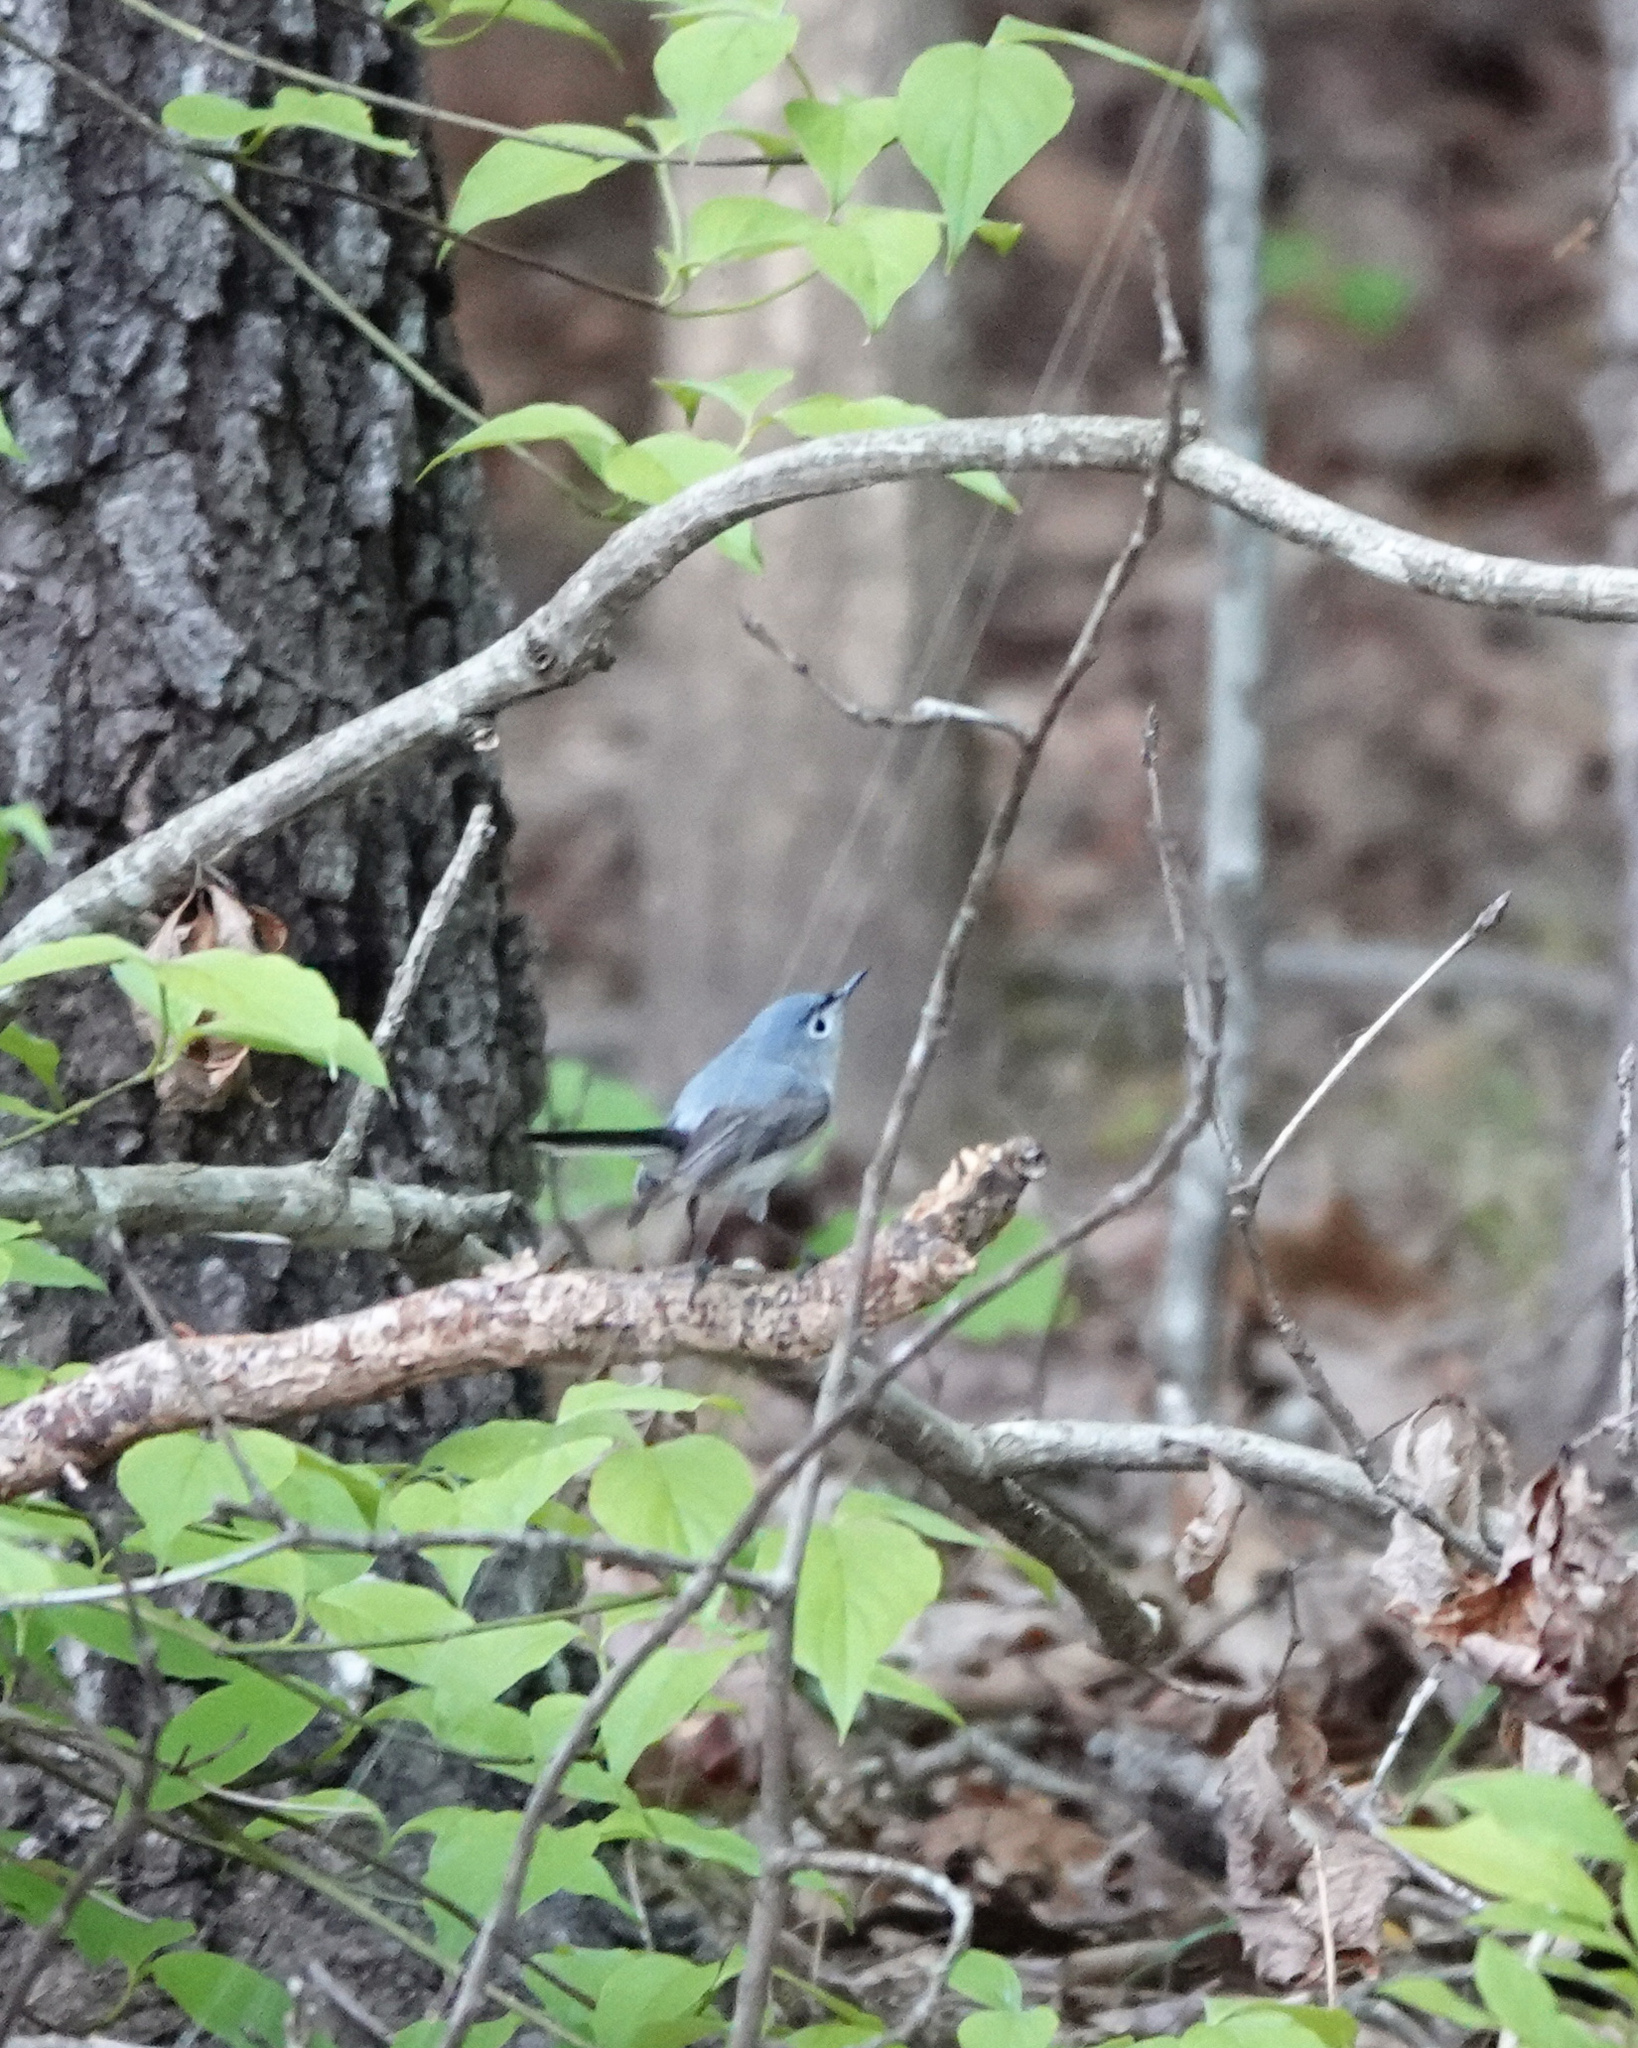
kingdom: Animalia
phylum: Chordata
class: Aves
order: Passeriformes
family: Polioptilidae
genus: Polioptila
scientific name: Polioptila caerulea
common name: Blue-gray gnatcatcher
